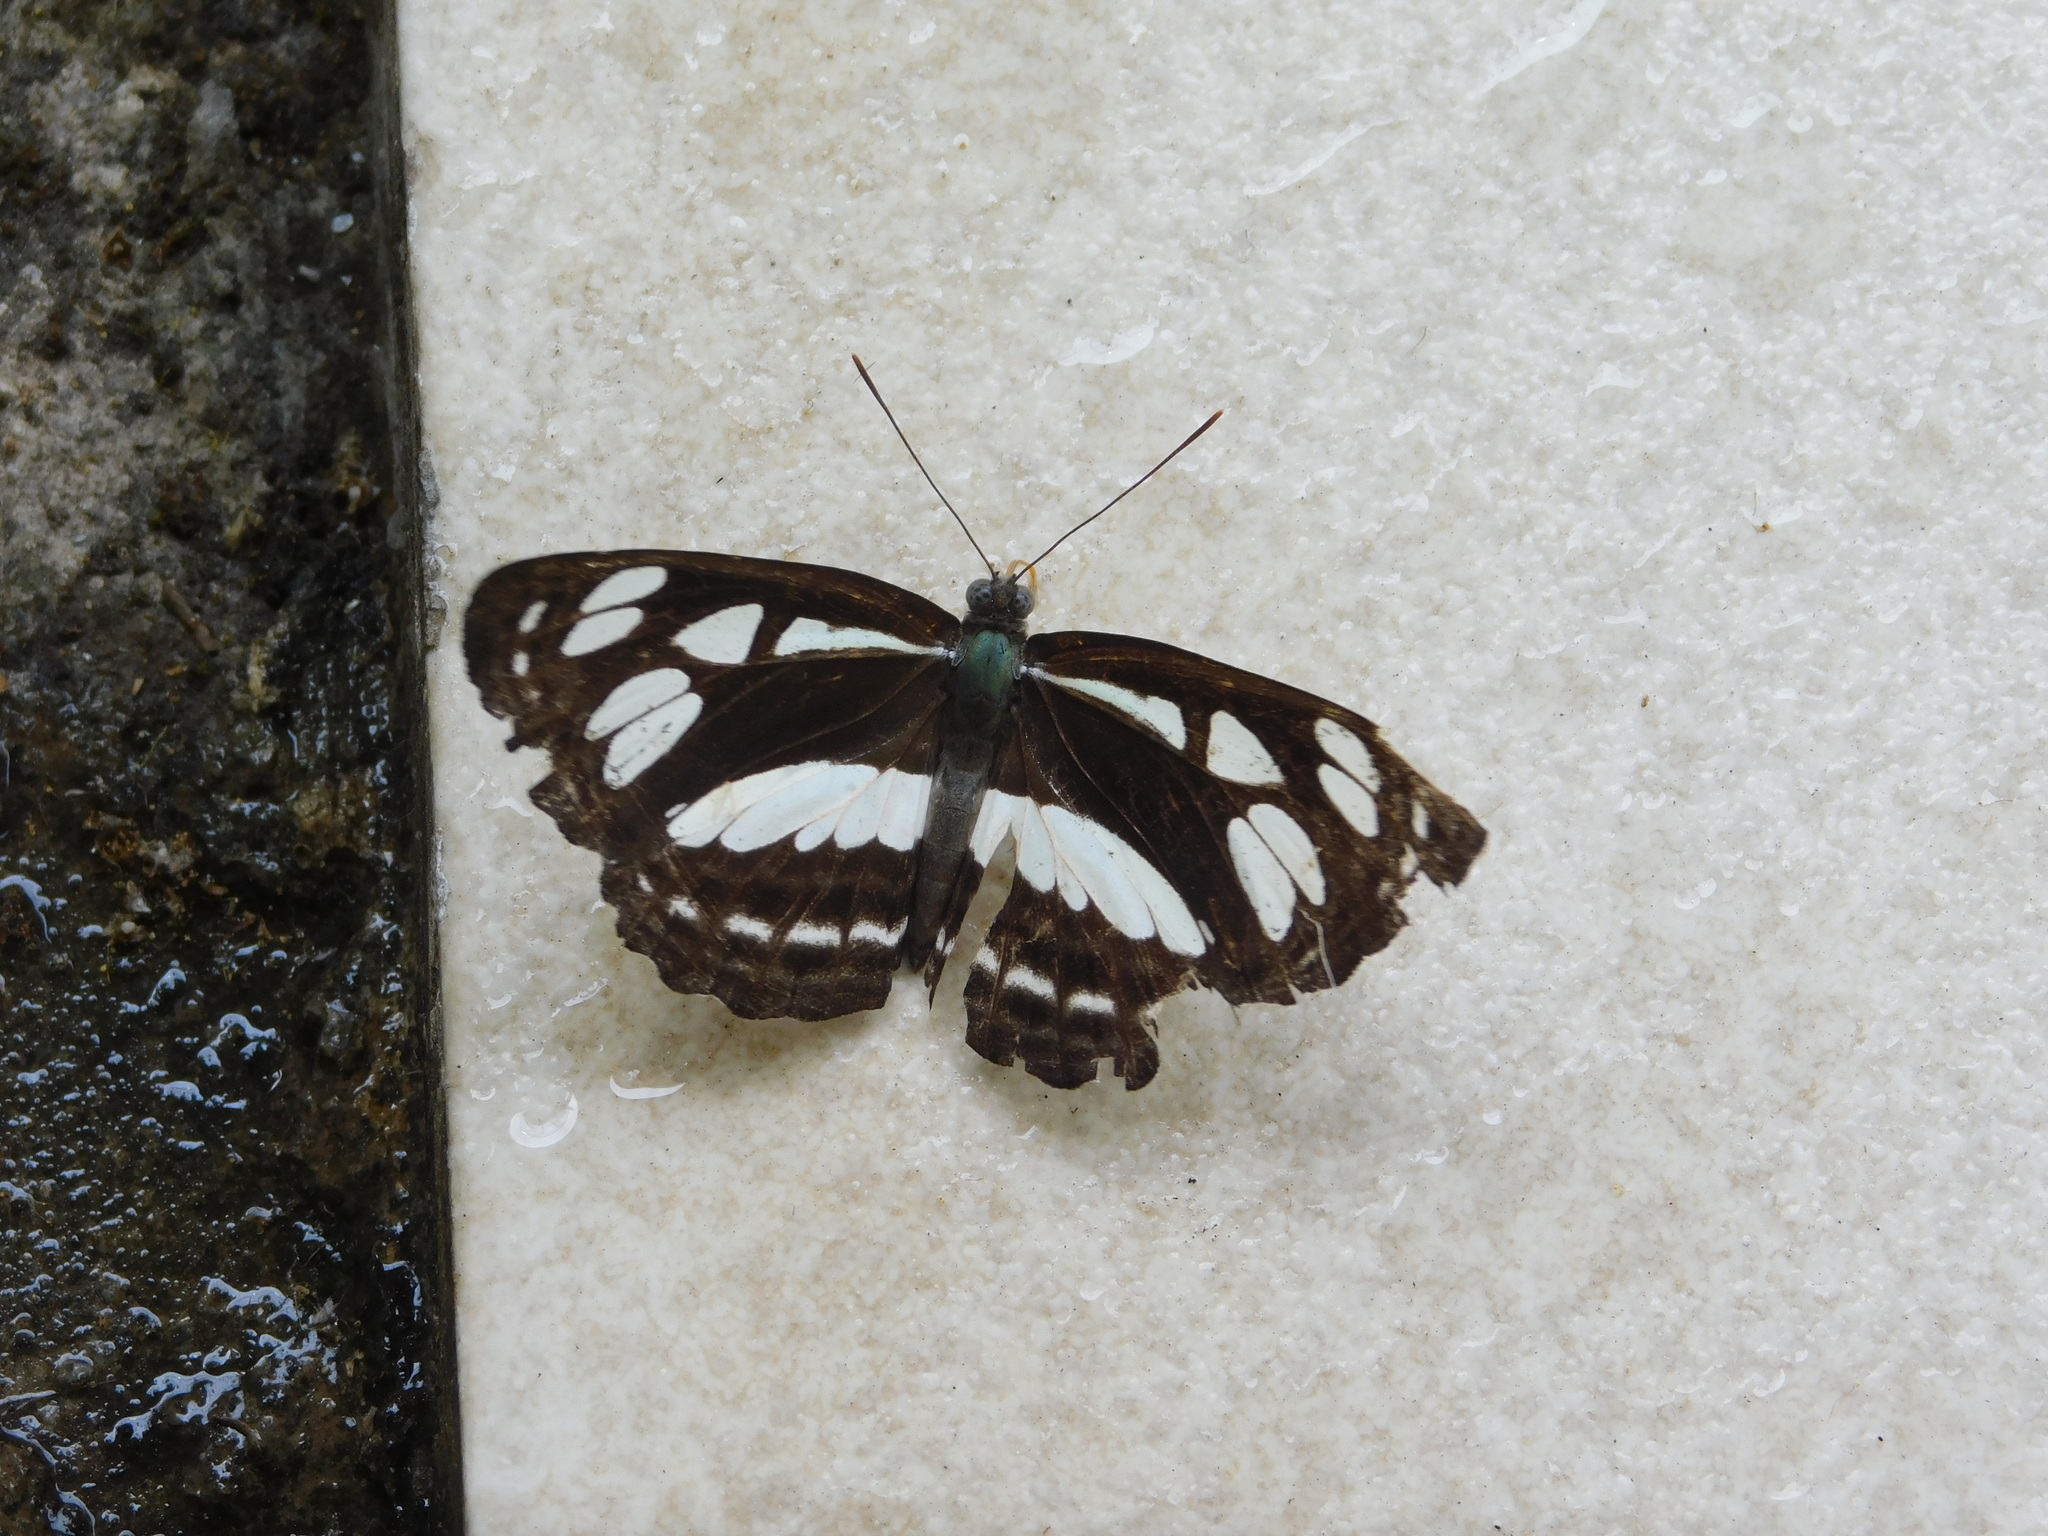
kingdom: Animalia
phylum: Arthropoda
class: Insecta
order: Lepidoptera
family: Nymphalidae
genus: Phaedyma
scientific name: Phaedyma columella
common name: Short banded sailer
